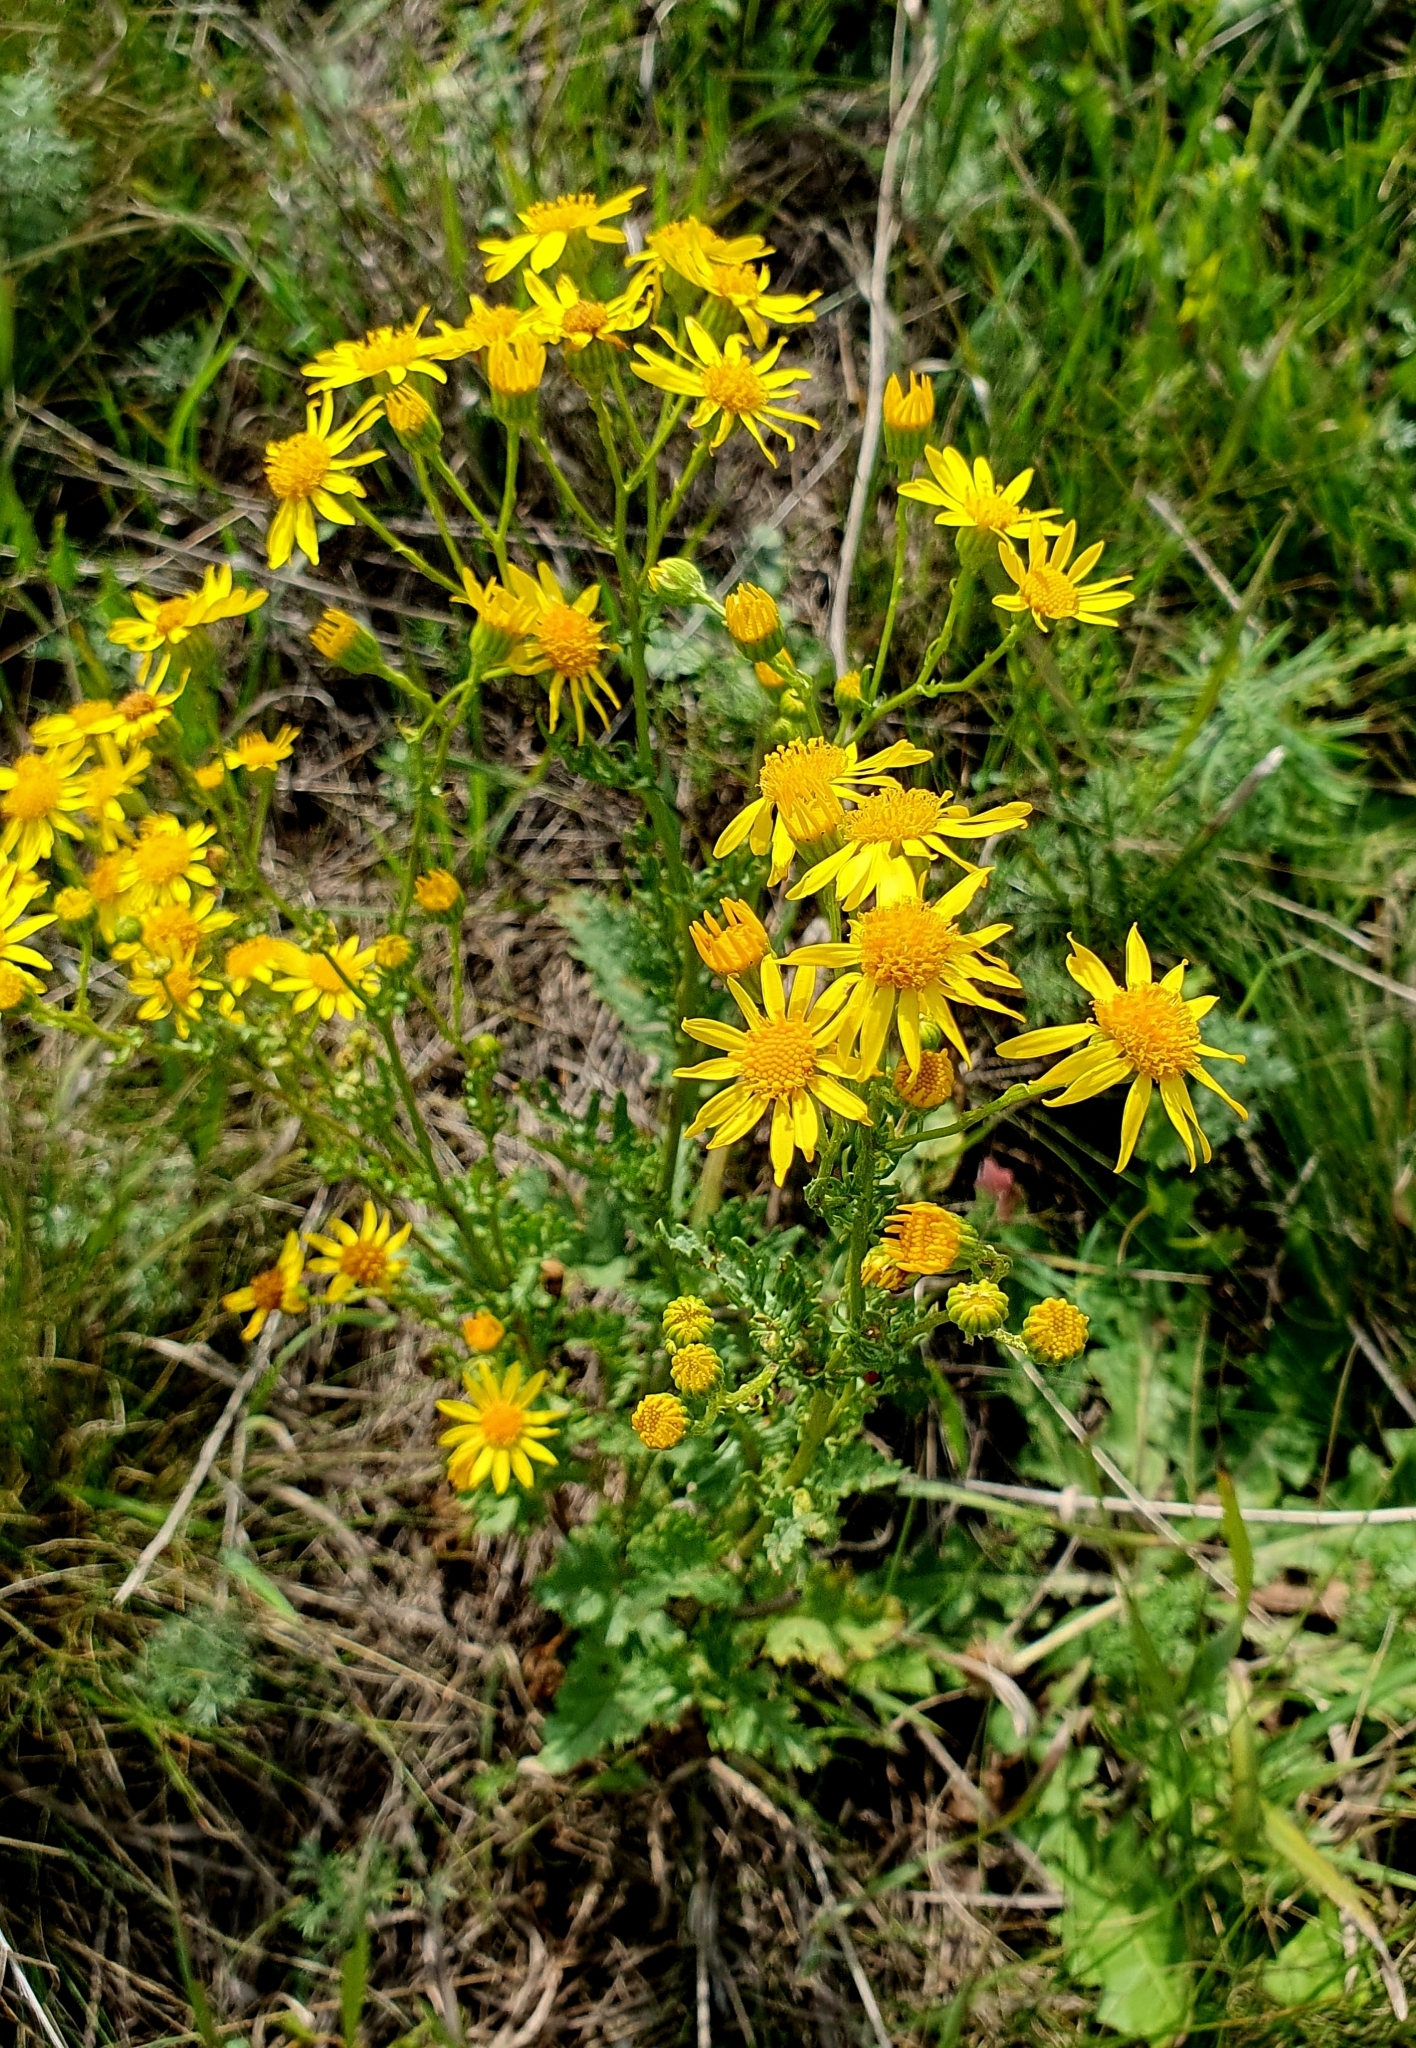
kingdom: Plantae
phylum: Tracheophyta
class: Magnoliopsida
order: Asterales
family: Asteraceae
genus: Jacobaea
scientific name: Jacobaea vulgaris
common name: Stinking willie
